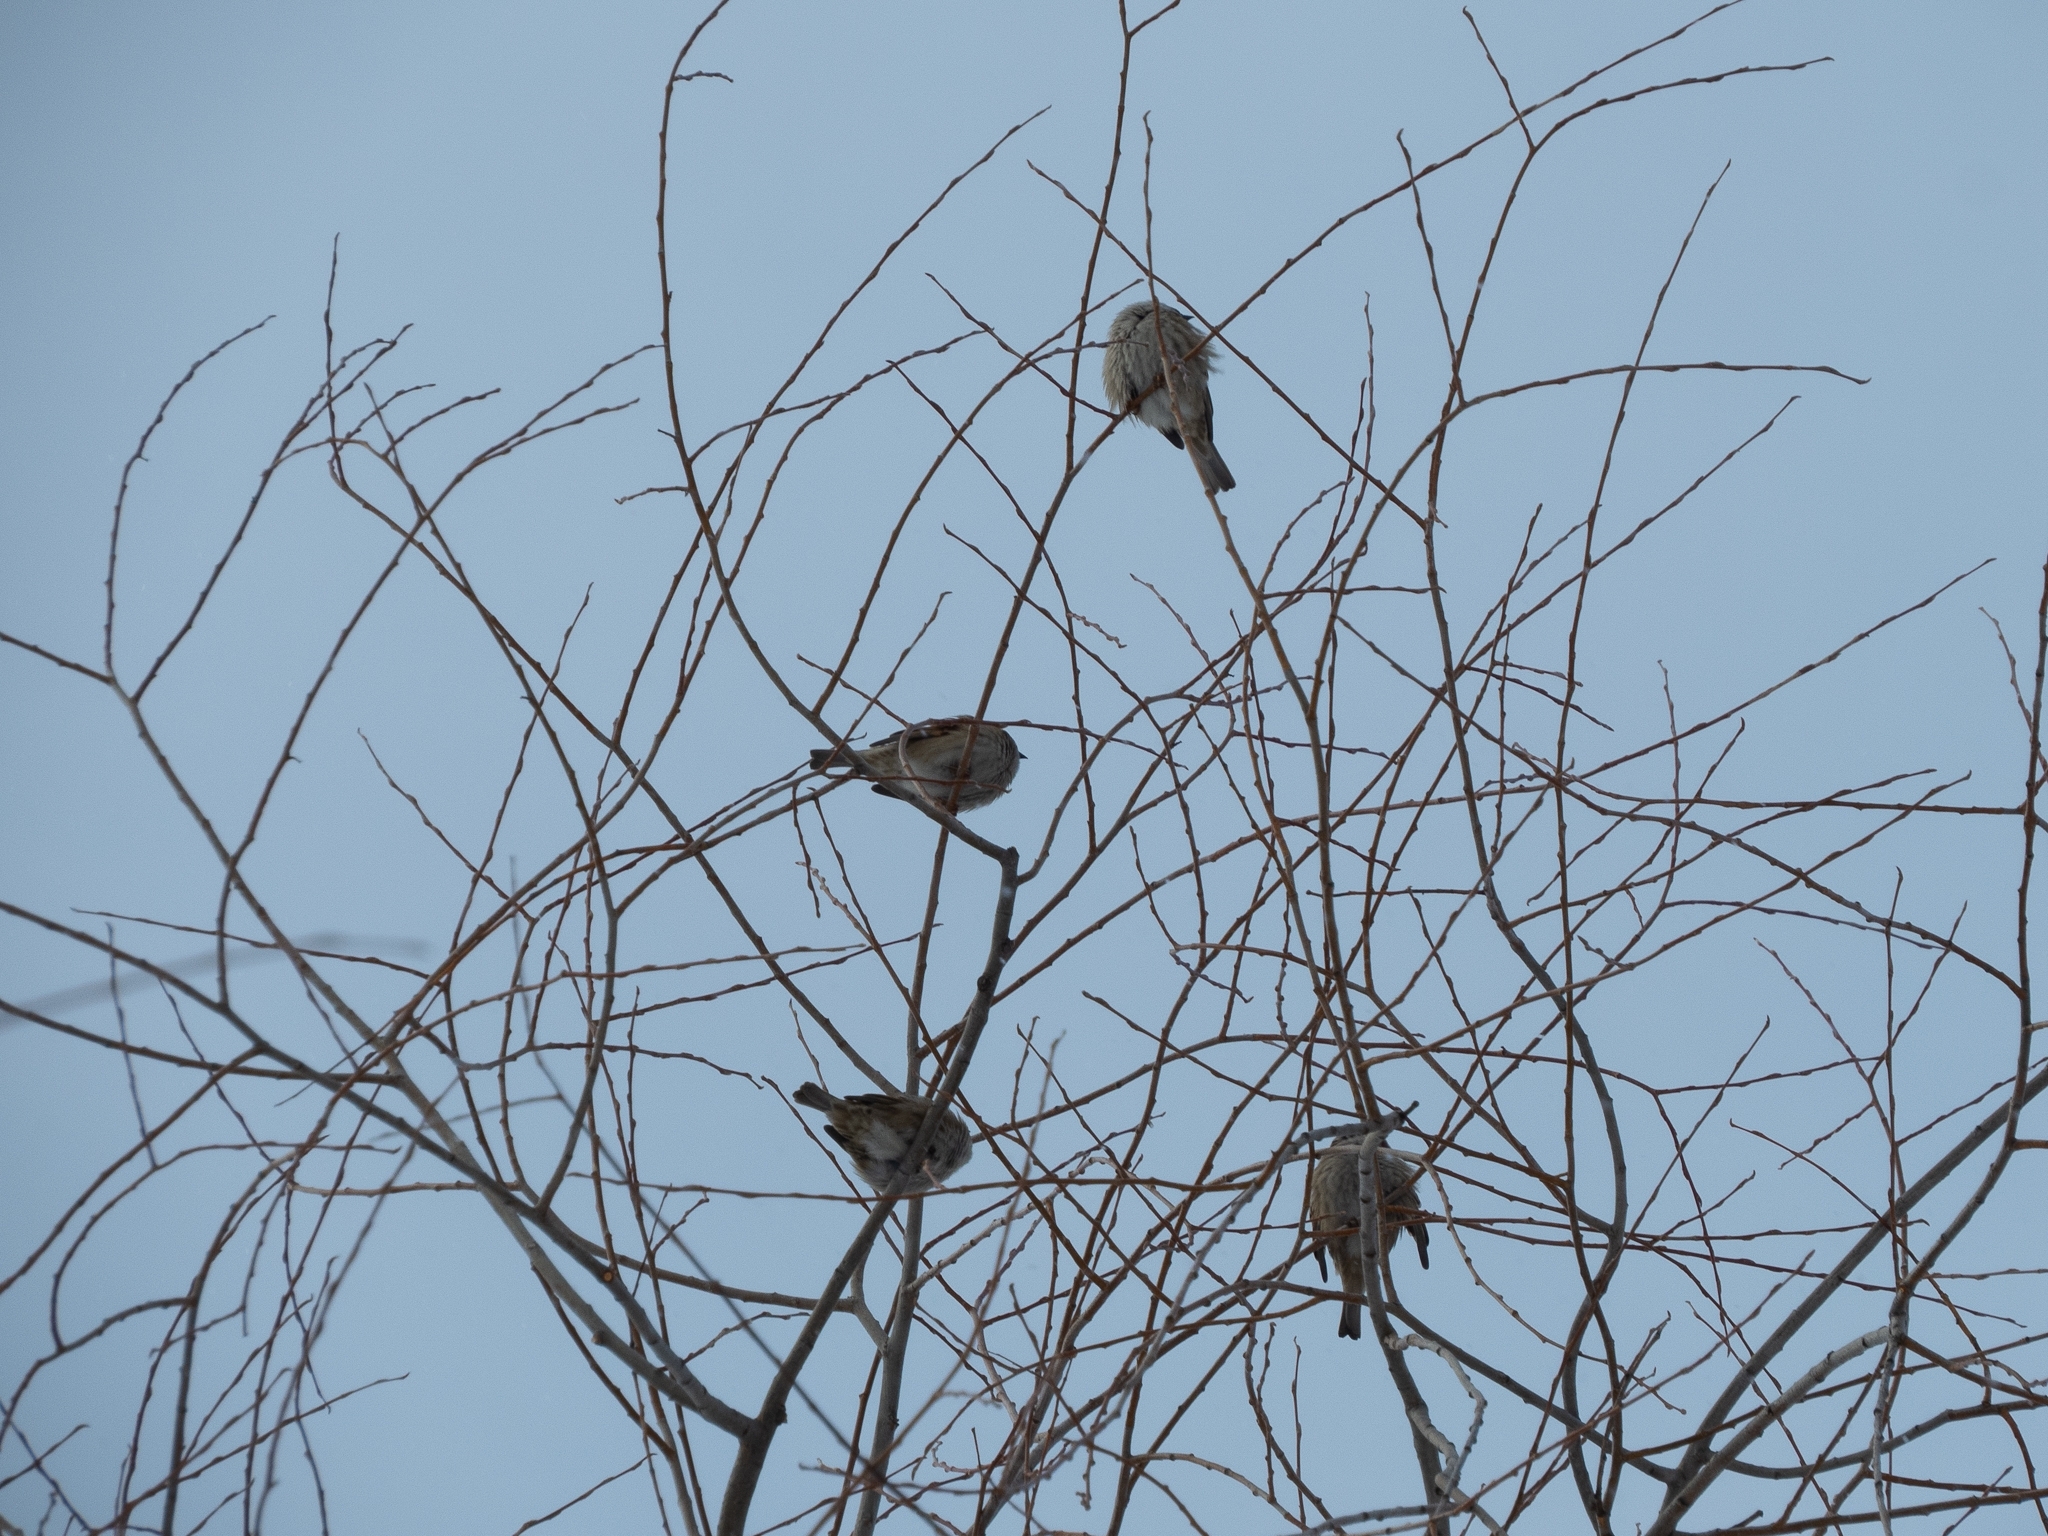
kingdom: Animalia
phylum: Chordata
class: Aves
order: Passeriformes
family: Passeridae
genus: Passer
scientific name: Passer montanus
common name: Eurasian tree sparrow
